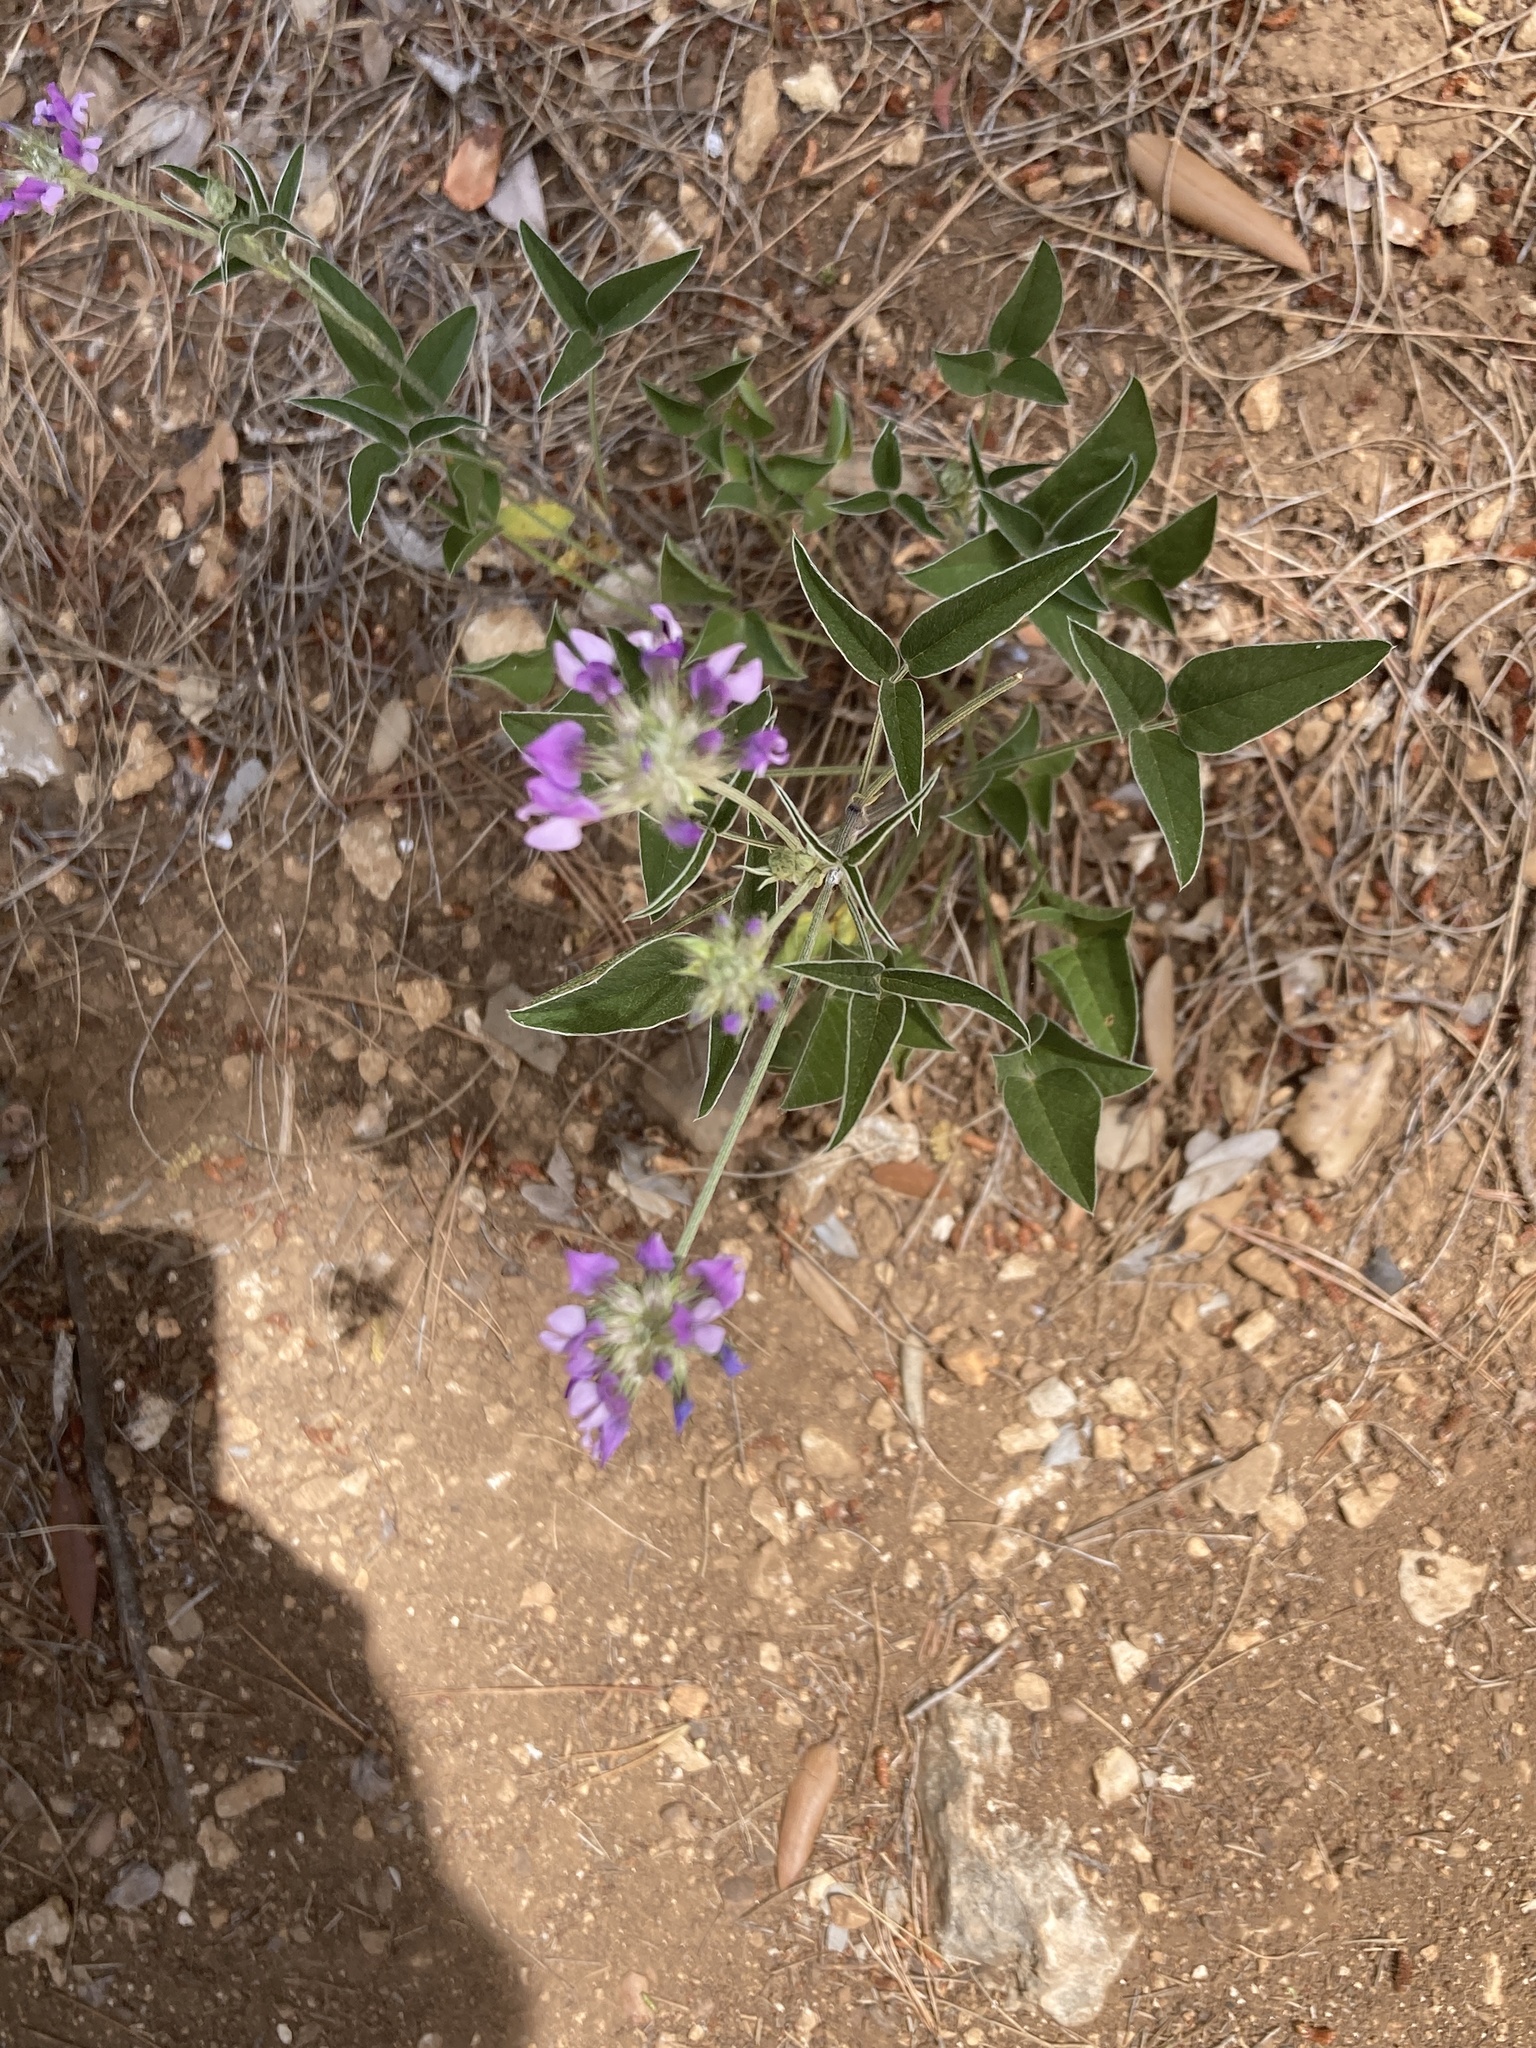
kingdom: Plantae
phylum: Tracheophyta
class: Magnoliopsida
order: Fabales
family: Fabaceae
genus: Bituminaria
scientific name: Bituminaria bituminosa
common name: Arabian pea
